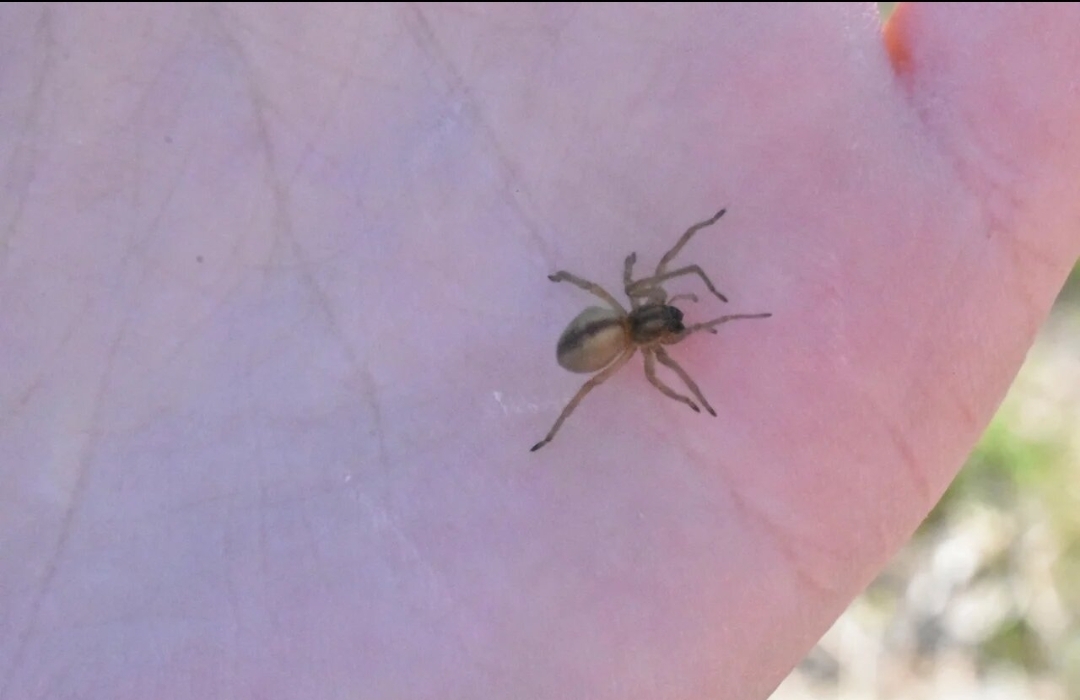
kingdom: Animalia
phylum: Arthropoda
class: Arachnida
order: Araneae
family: Cheiracanthiidae
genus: Cheiracanthium
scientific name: Cheiracanthium erraticum
